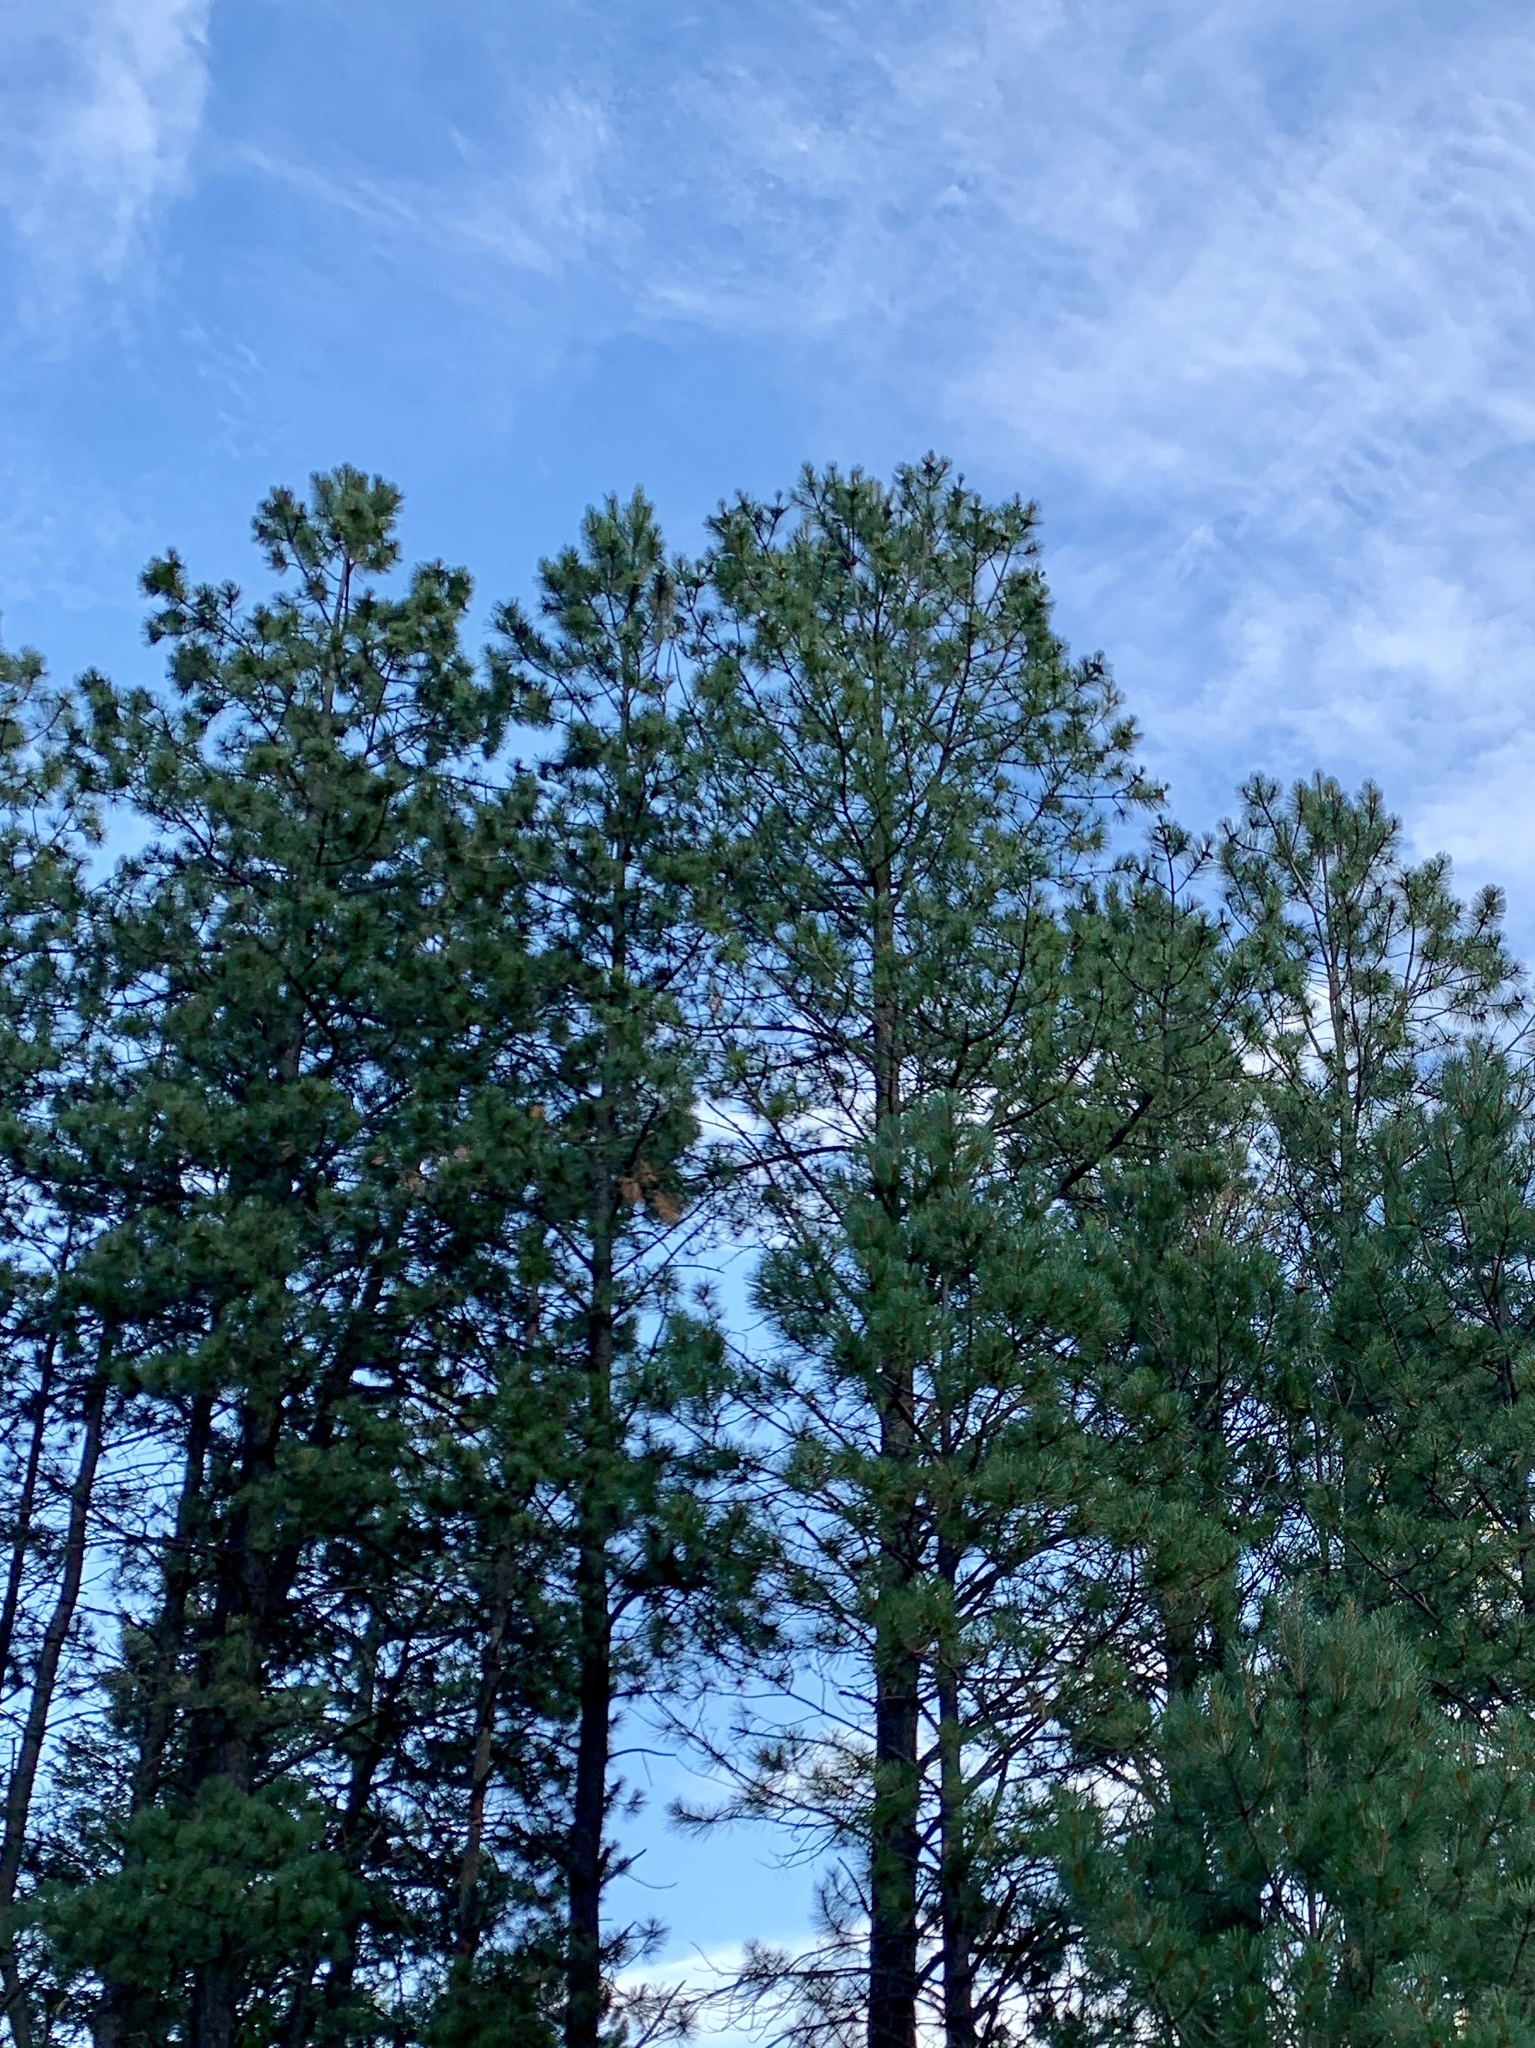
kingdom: Plantae
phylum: Tracheophyta
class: Pinopsida
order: Pinales
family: Pinaceae
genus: Pinus
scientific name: Pinus ponderosa
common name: Western yellow-pine
